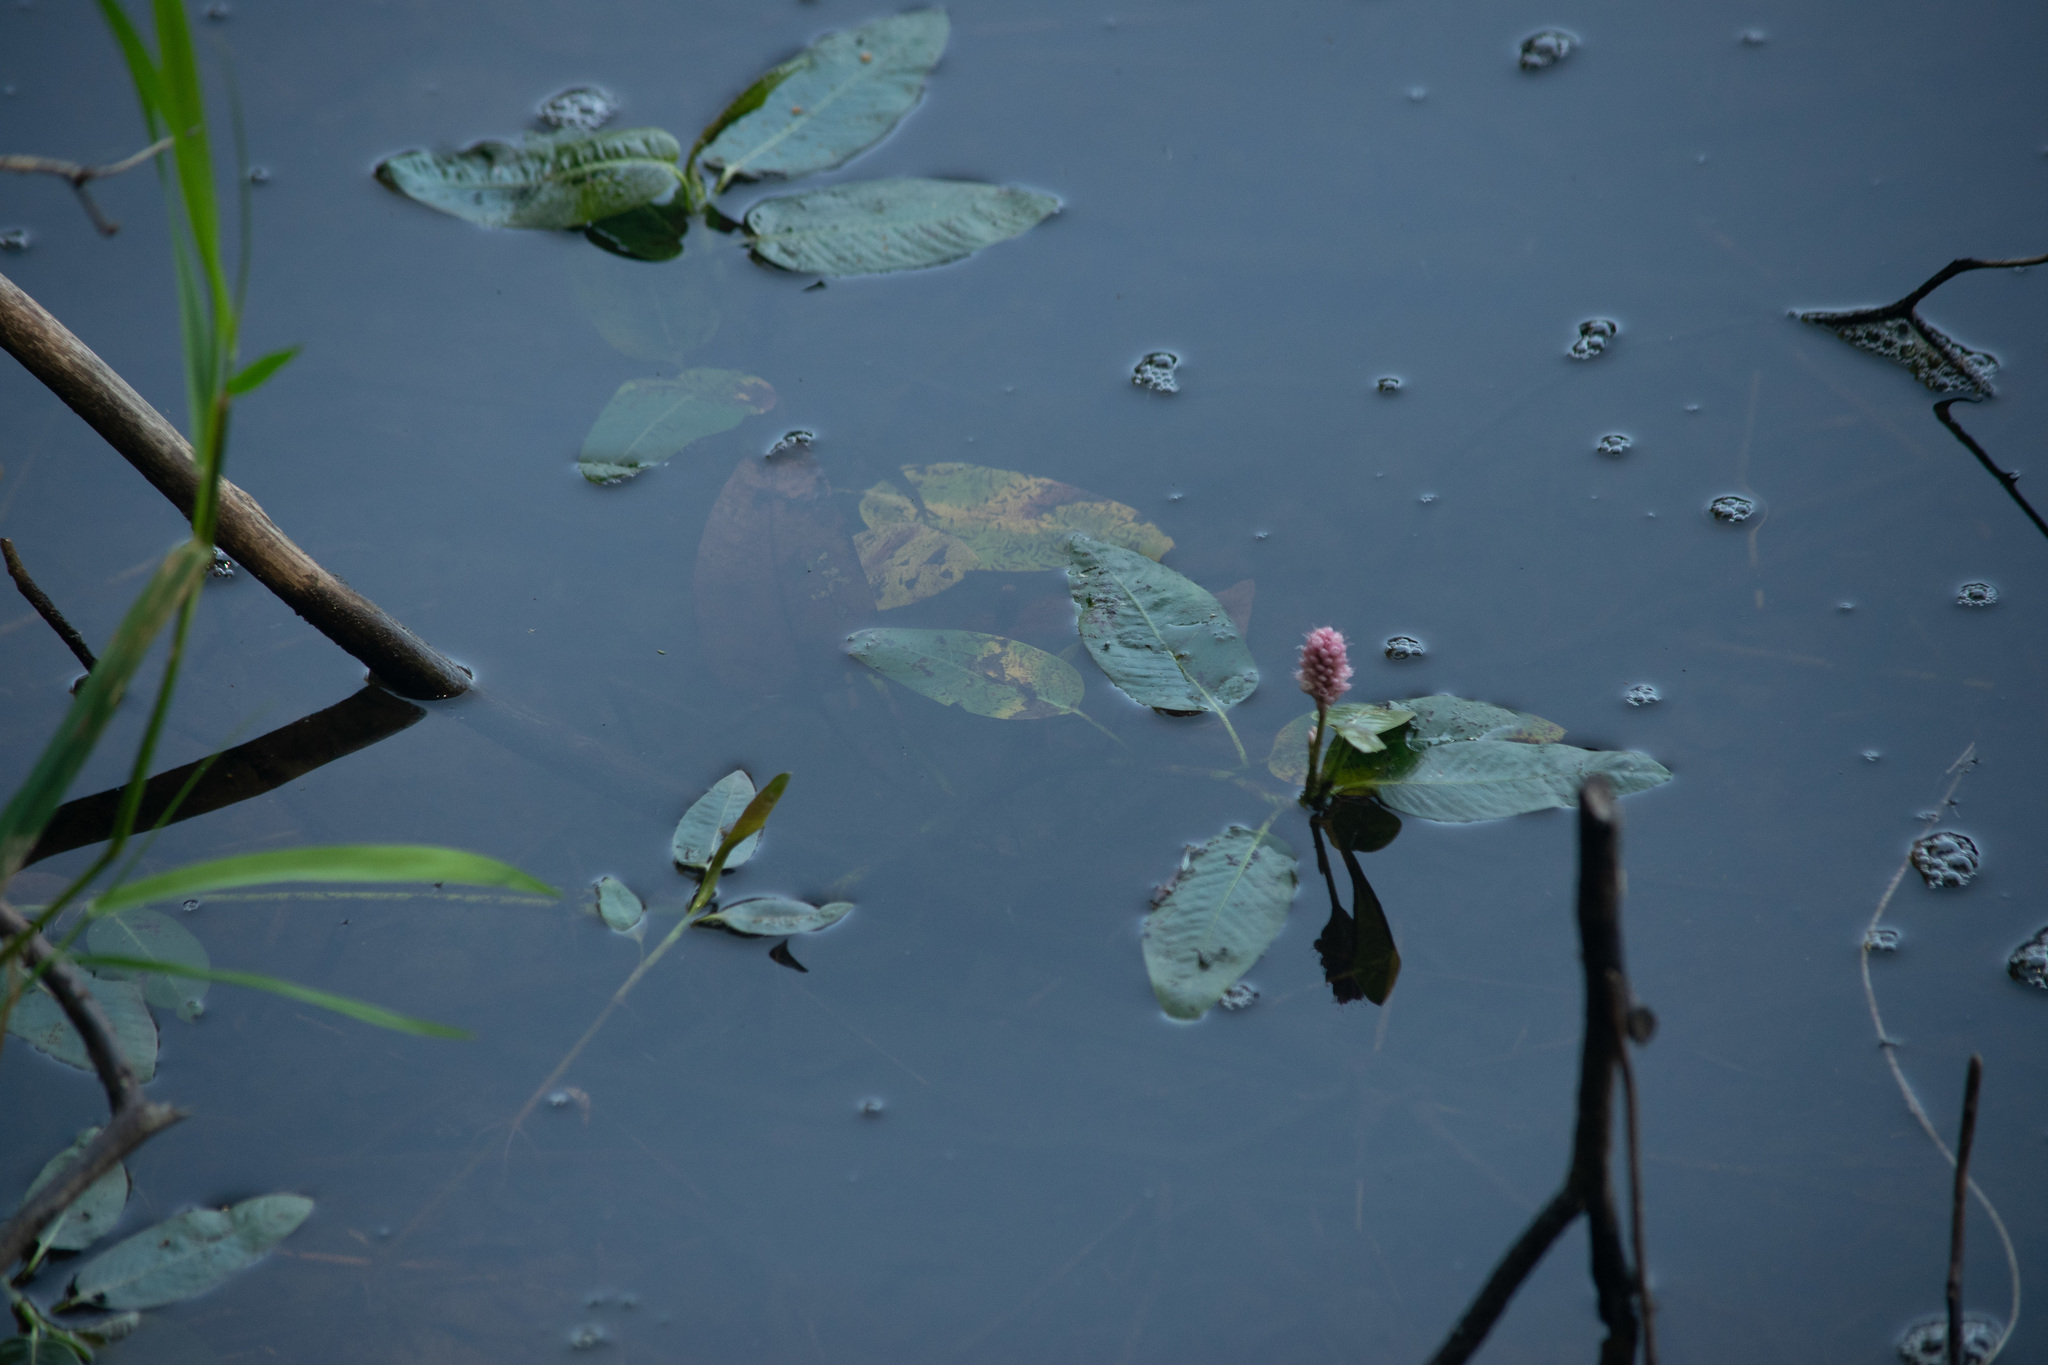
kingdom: Plantae
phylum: Tracheophyta
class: Magnoliopsida
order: Caryophyllales
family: Polygonaceae
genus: Persicaria
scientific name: Persicaria amphibia
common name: Amphibious bistort
